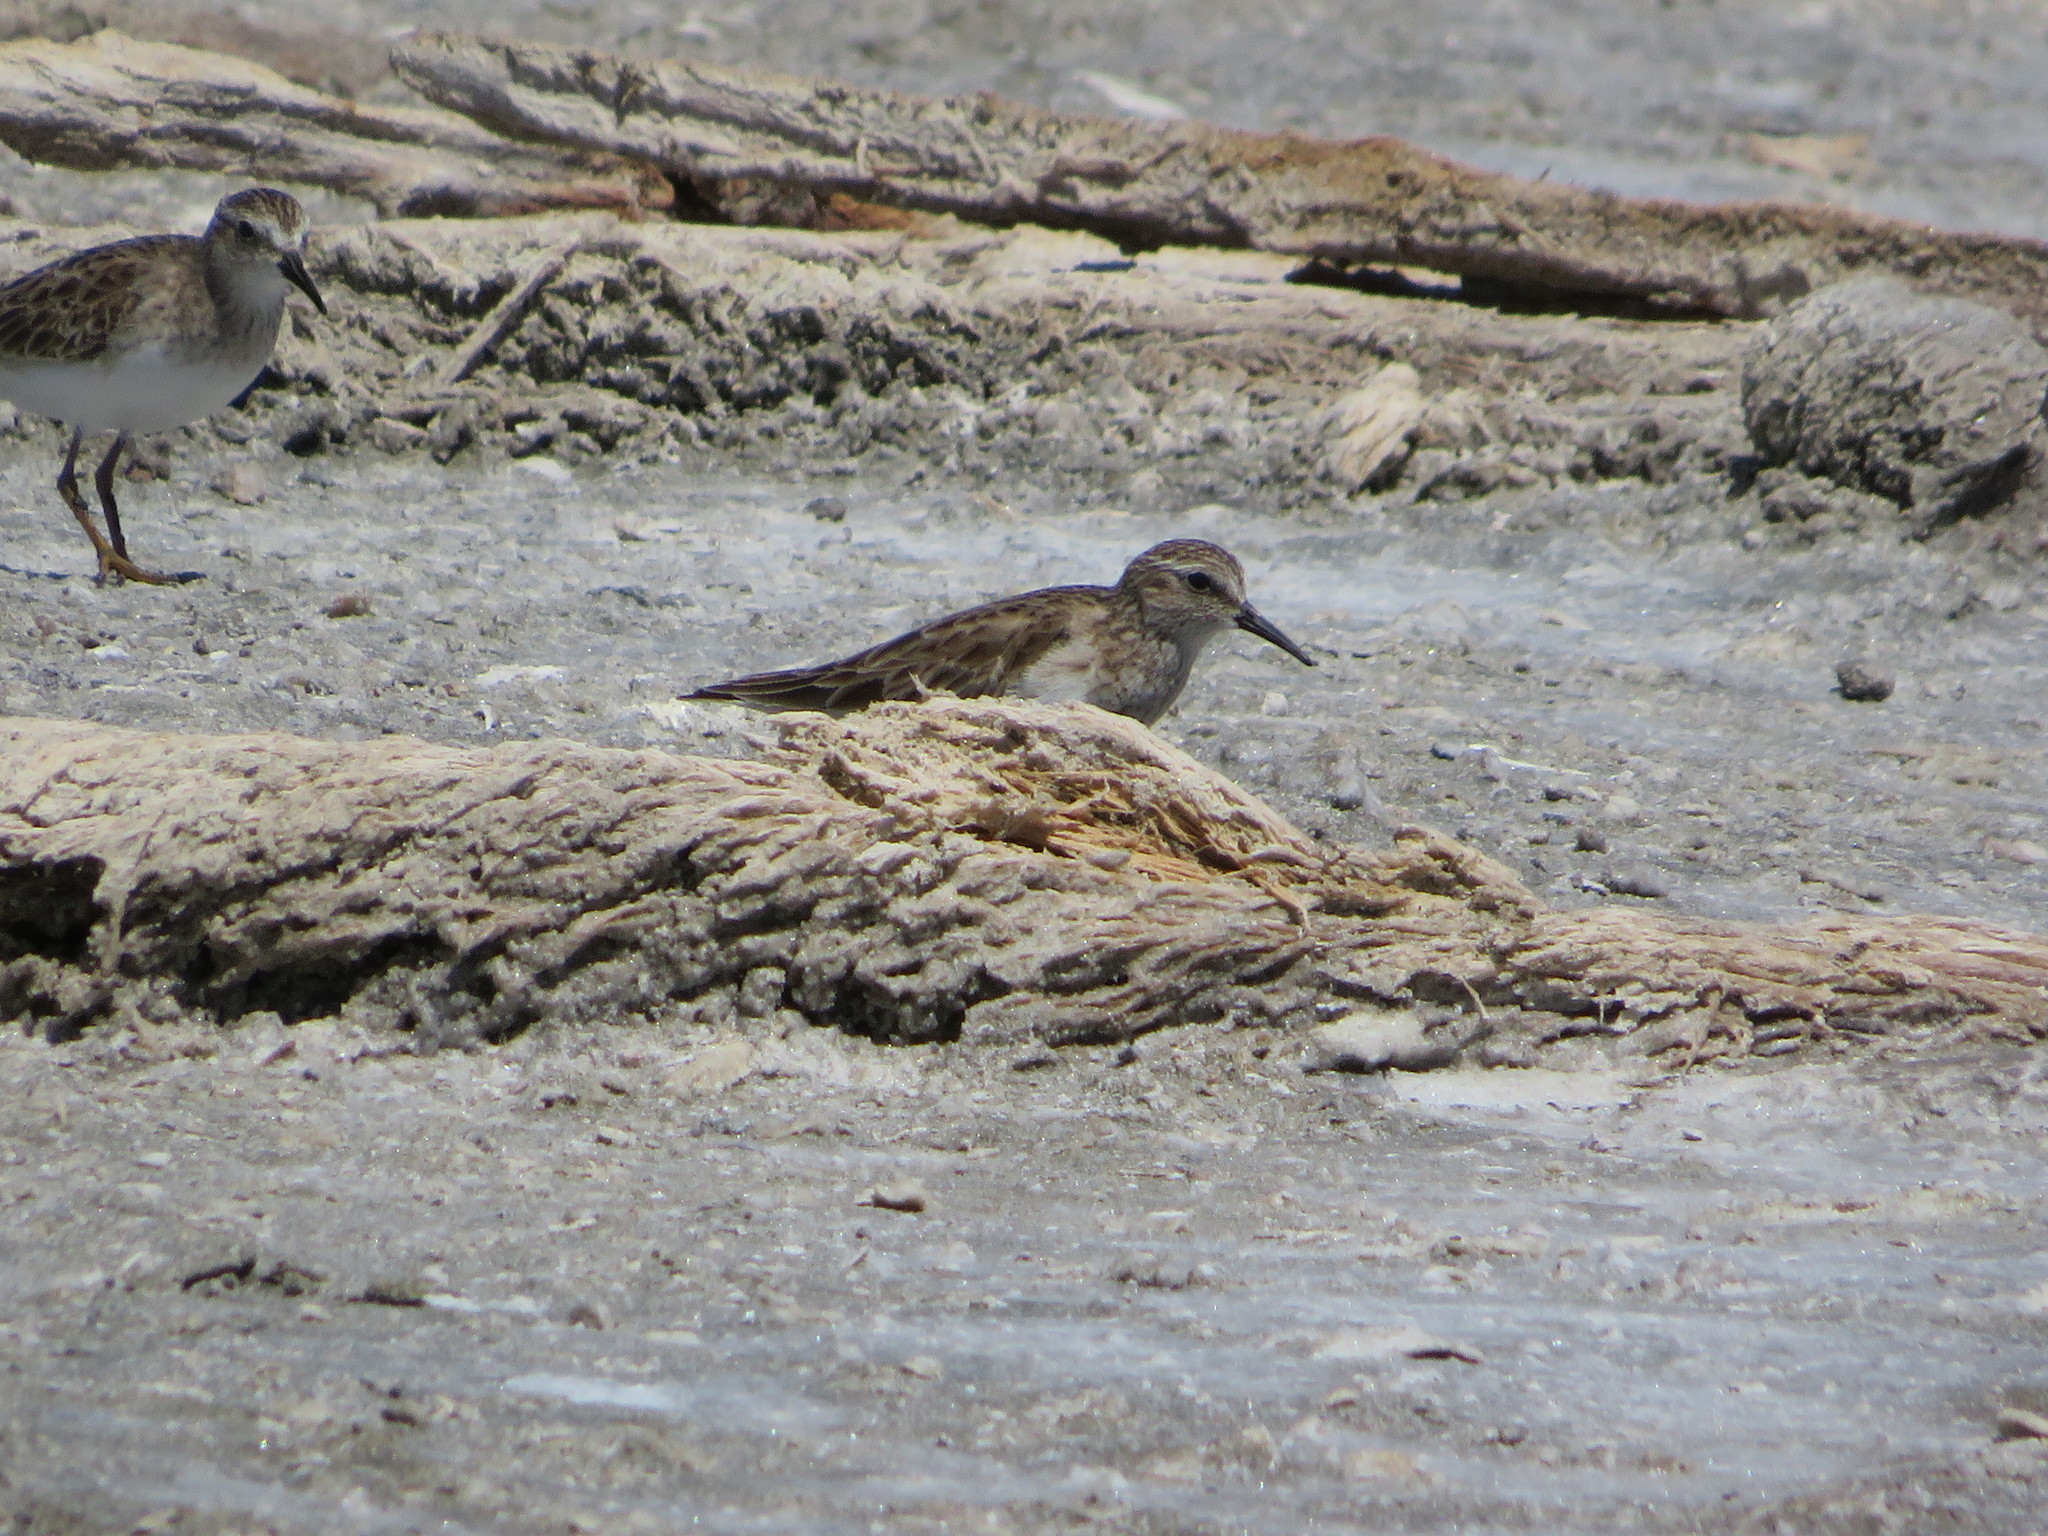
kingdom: Animalia
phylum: Chordata
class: Aves
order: Charadriiformes
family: Scolopacidae
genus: Calidris
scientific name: Calidris minutilla
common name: Least sandpiper
